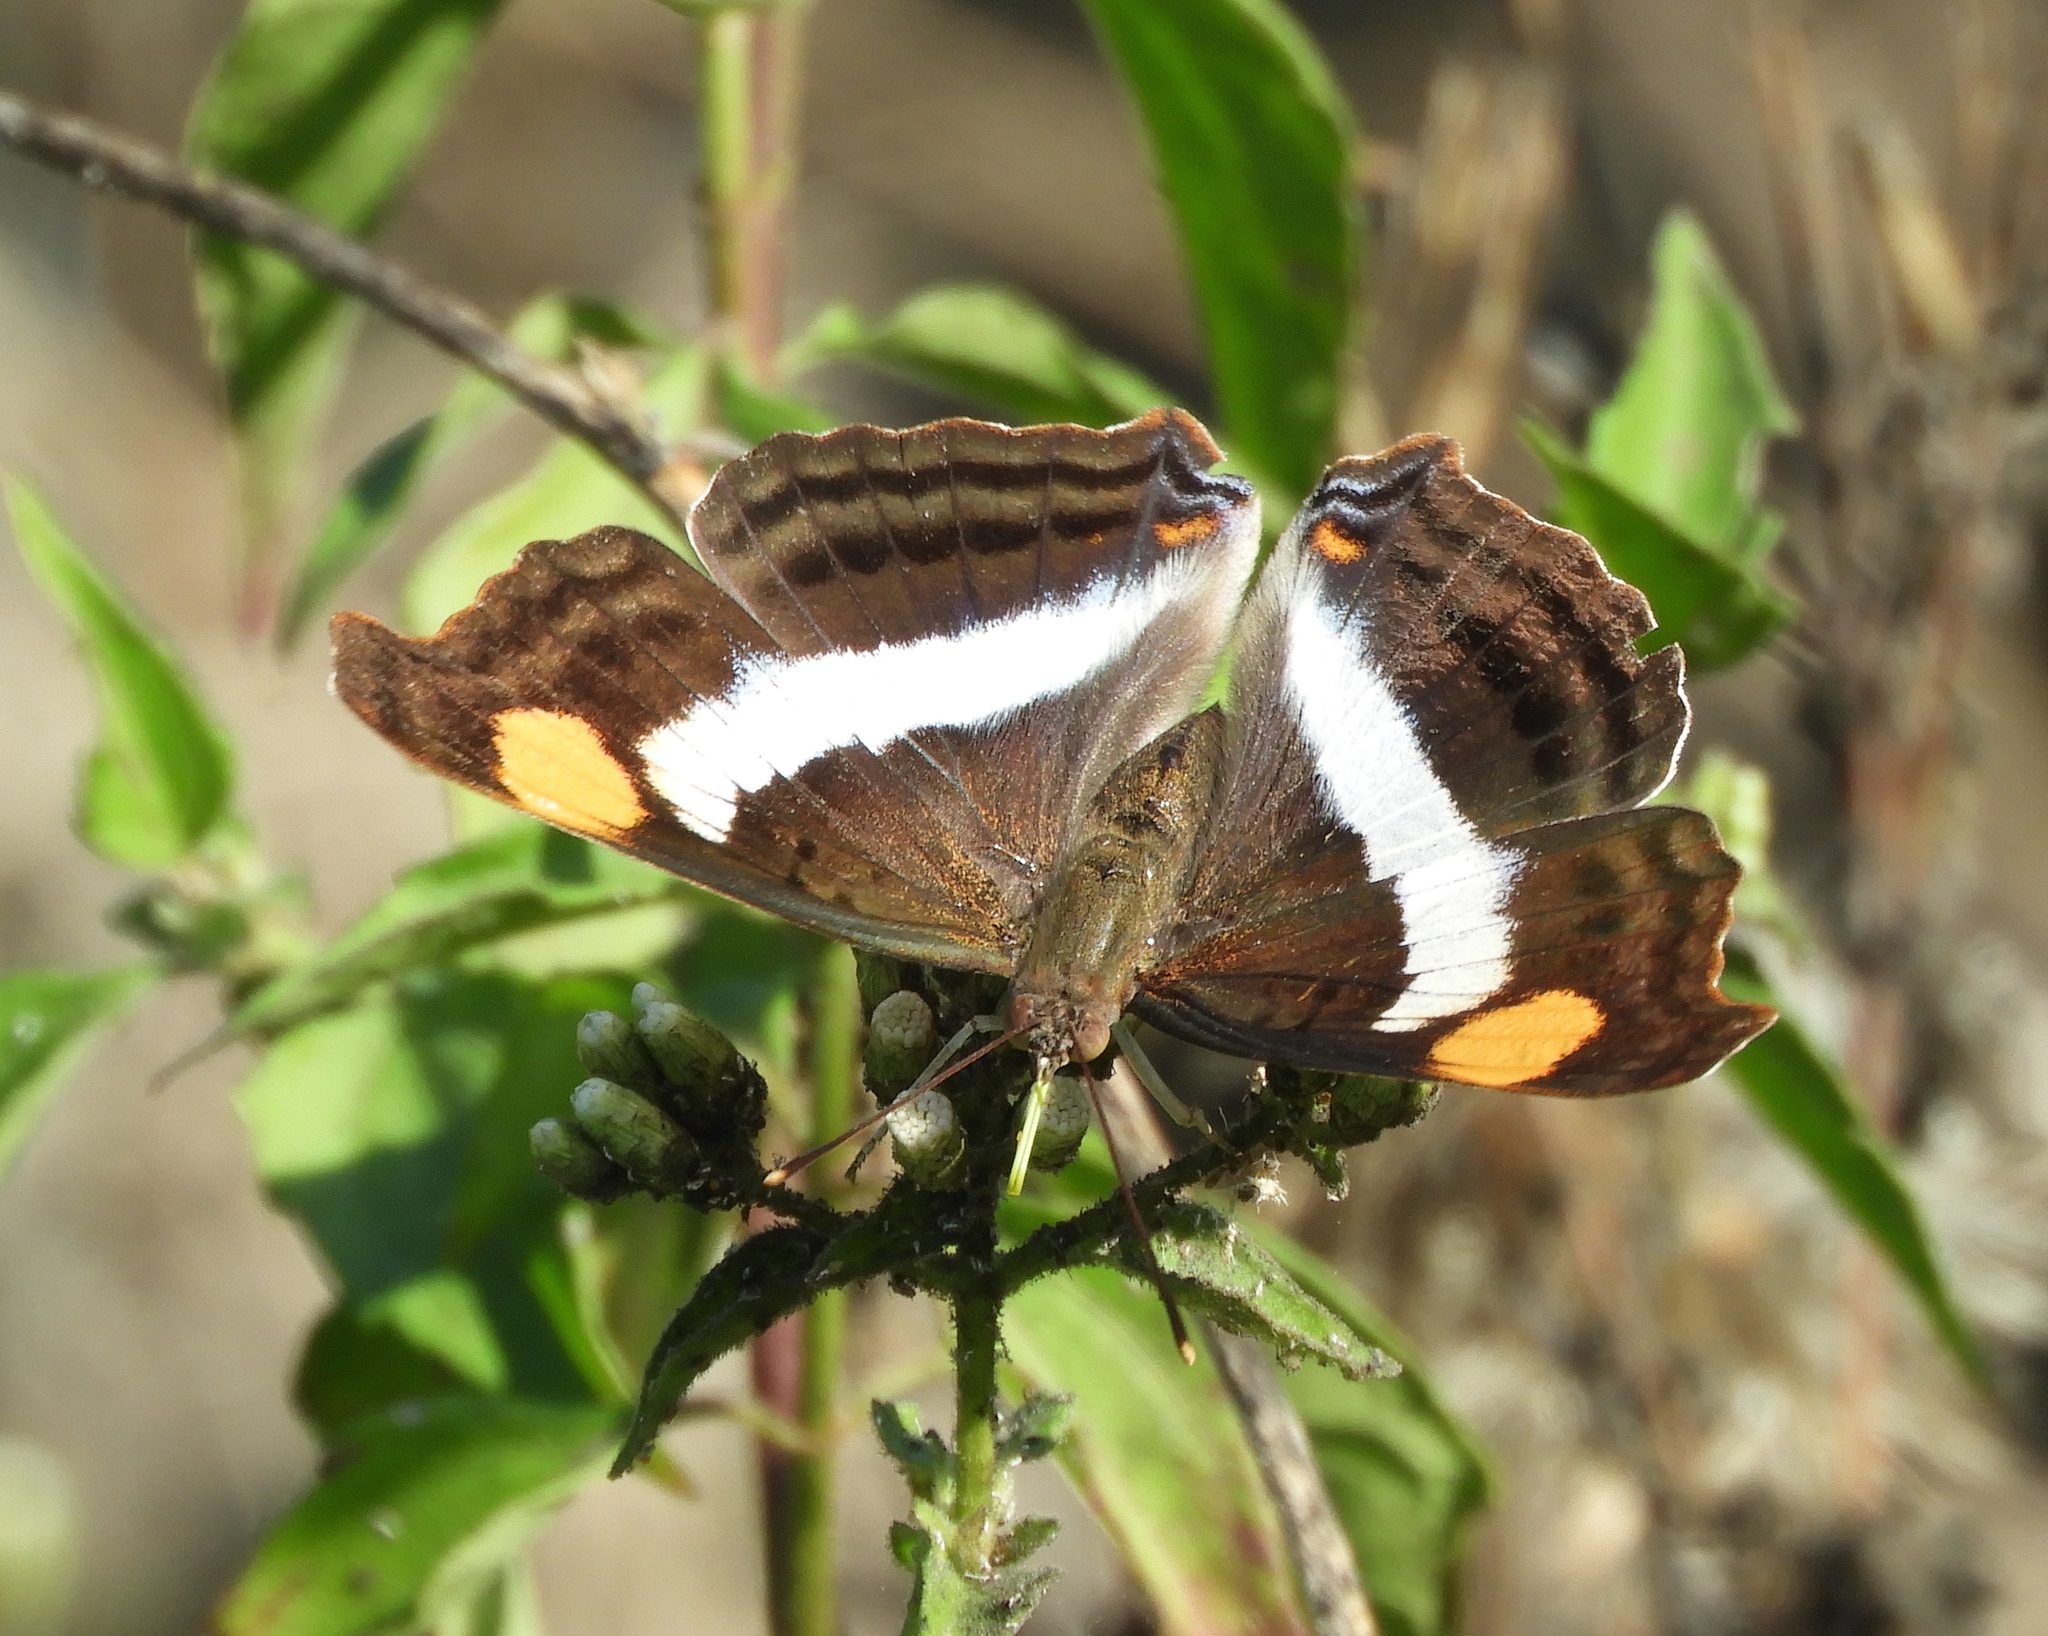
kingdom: Animalia
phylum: Arthropoda
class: Insecta
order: Lepidoptera
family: Nymphalidae
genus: Doxocopa
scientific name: Doxocopa laure
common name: Silver emperor
